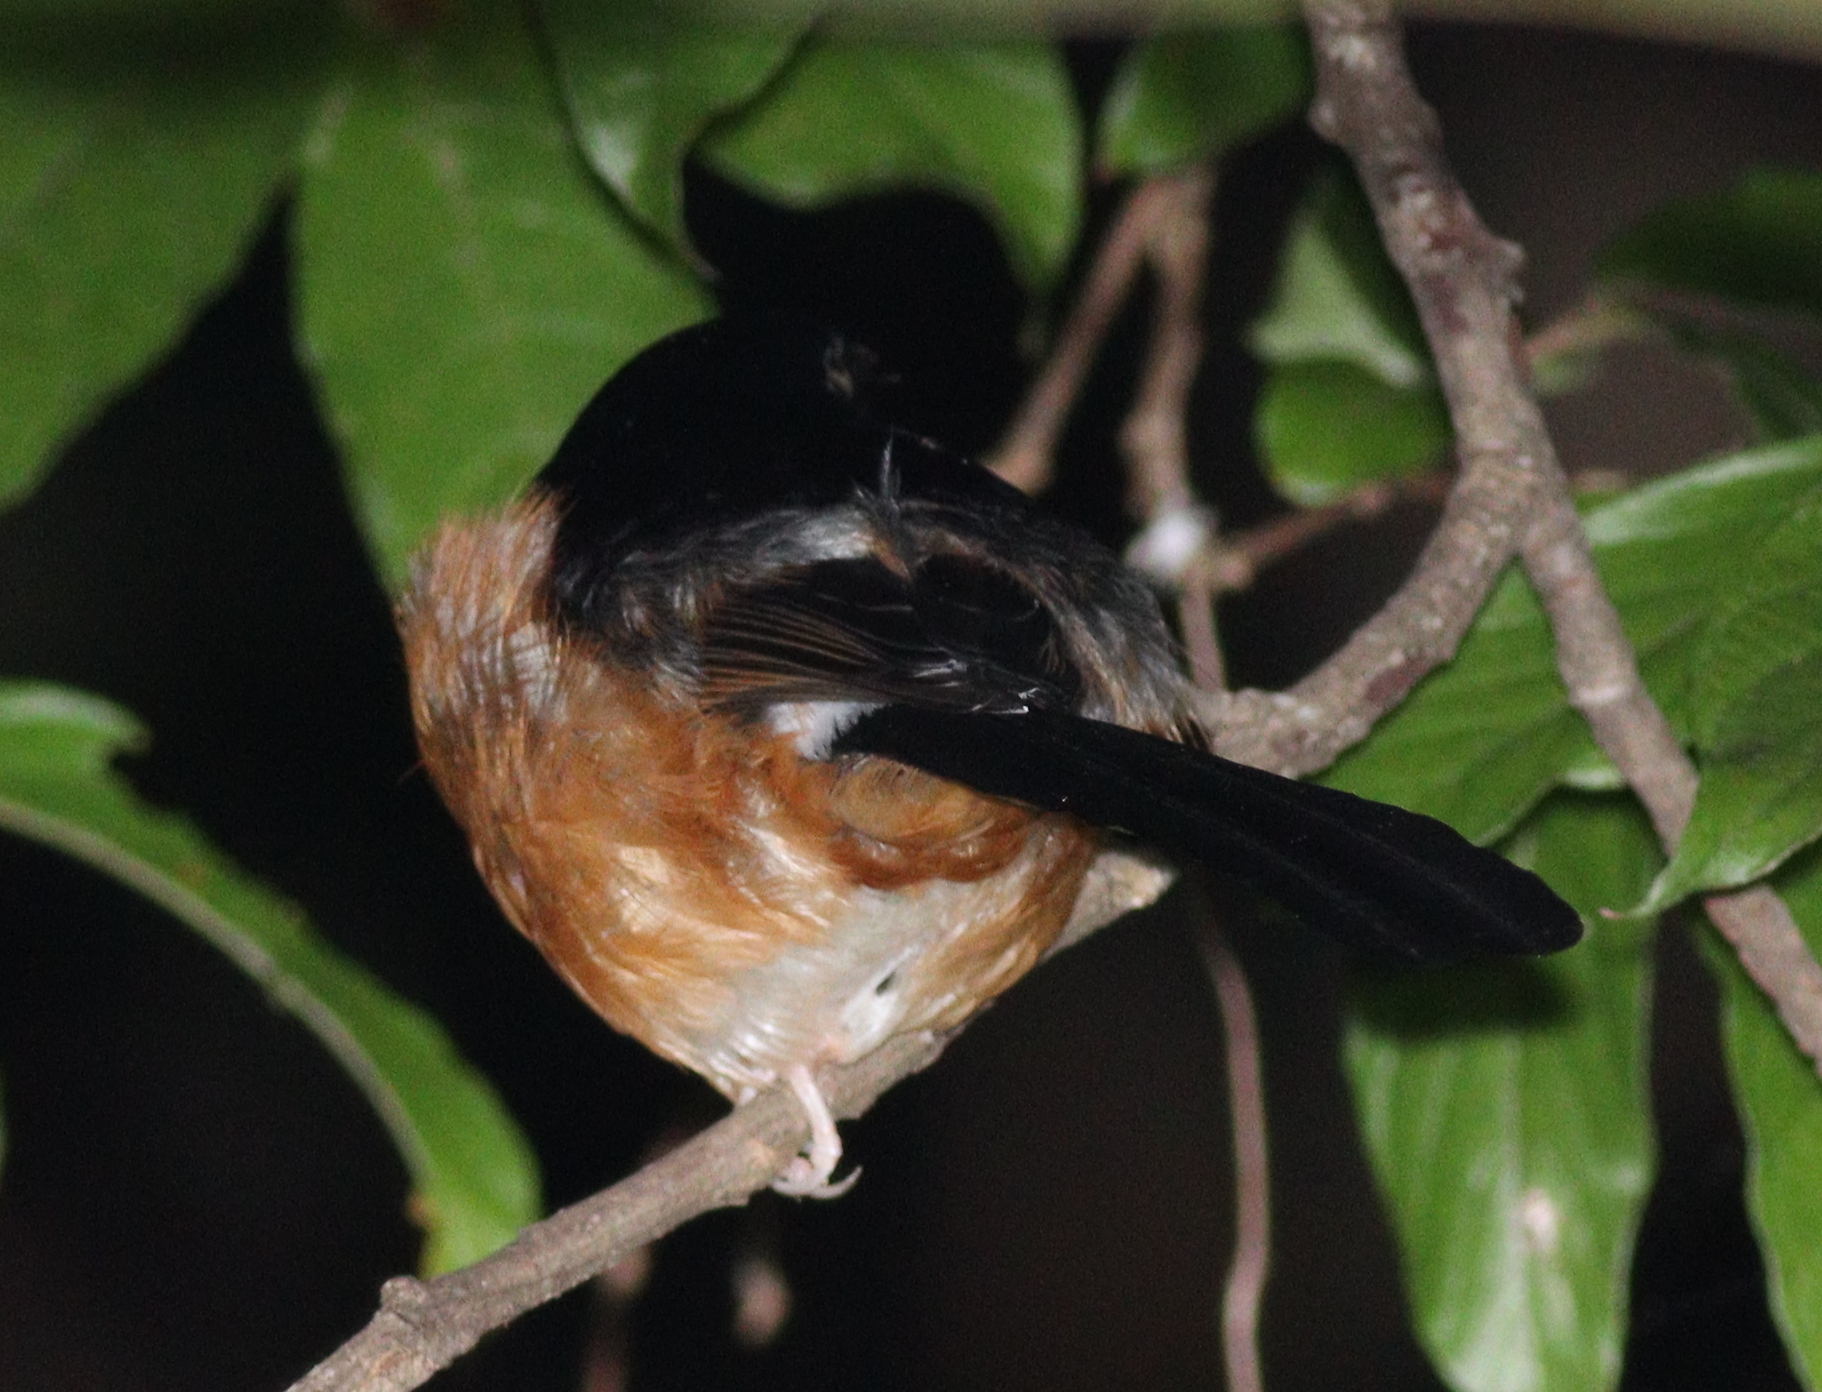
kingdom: Animalia
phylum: Chordata
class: Aves
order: Passeriformes
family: Muscicapidae
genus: Copsychus
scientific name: Copsychus malabaricus
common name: White-rumped shama
